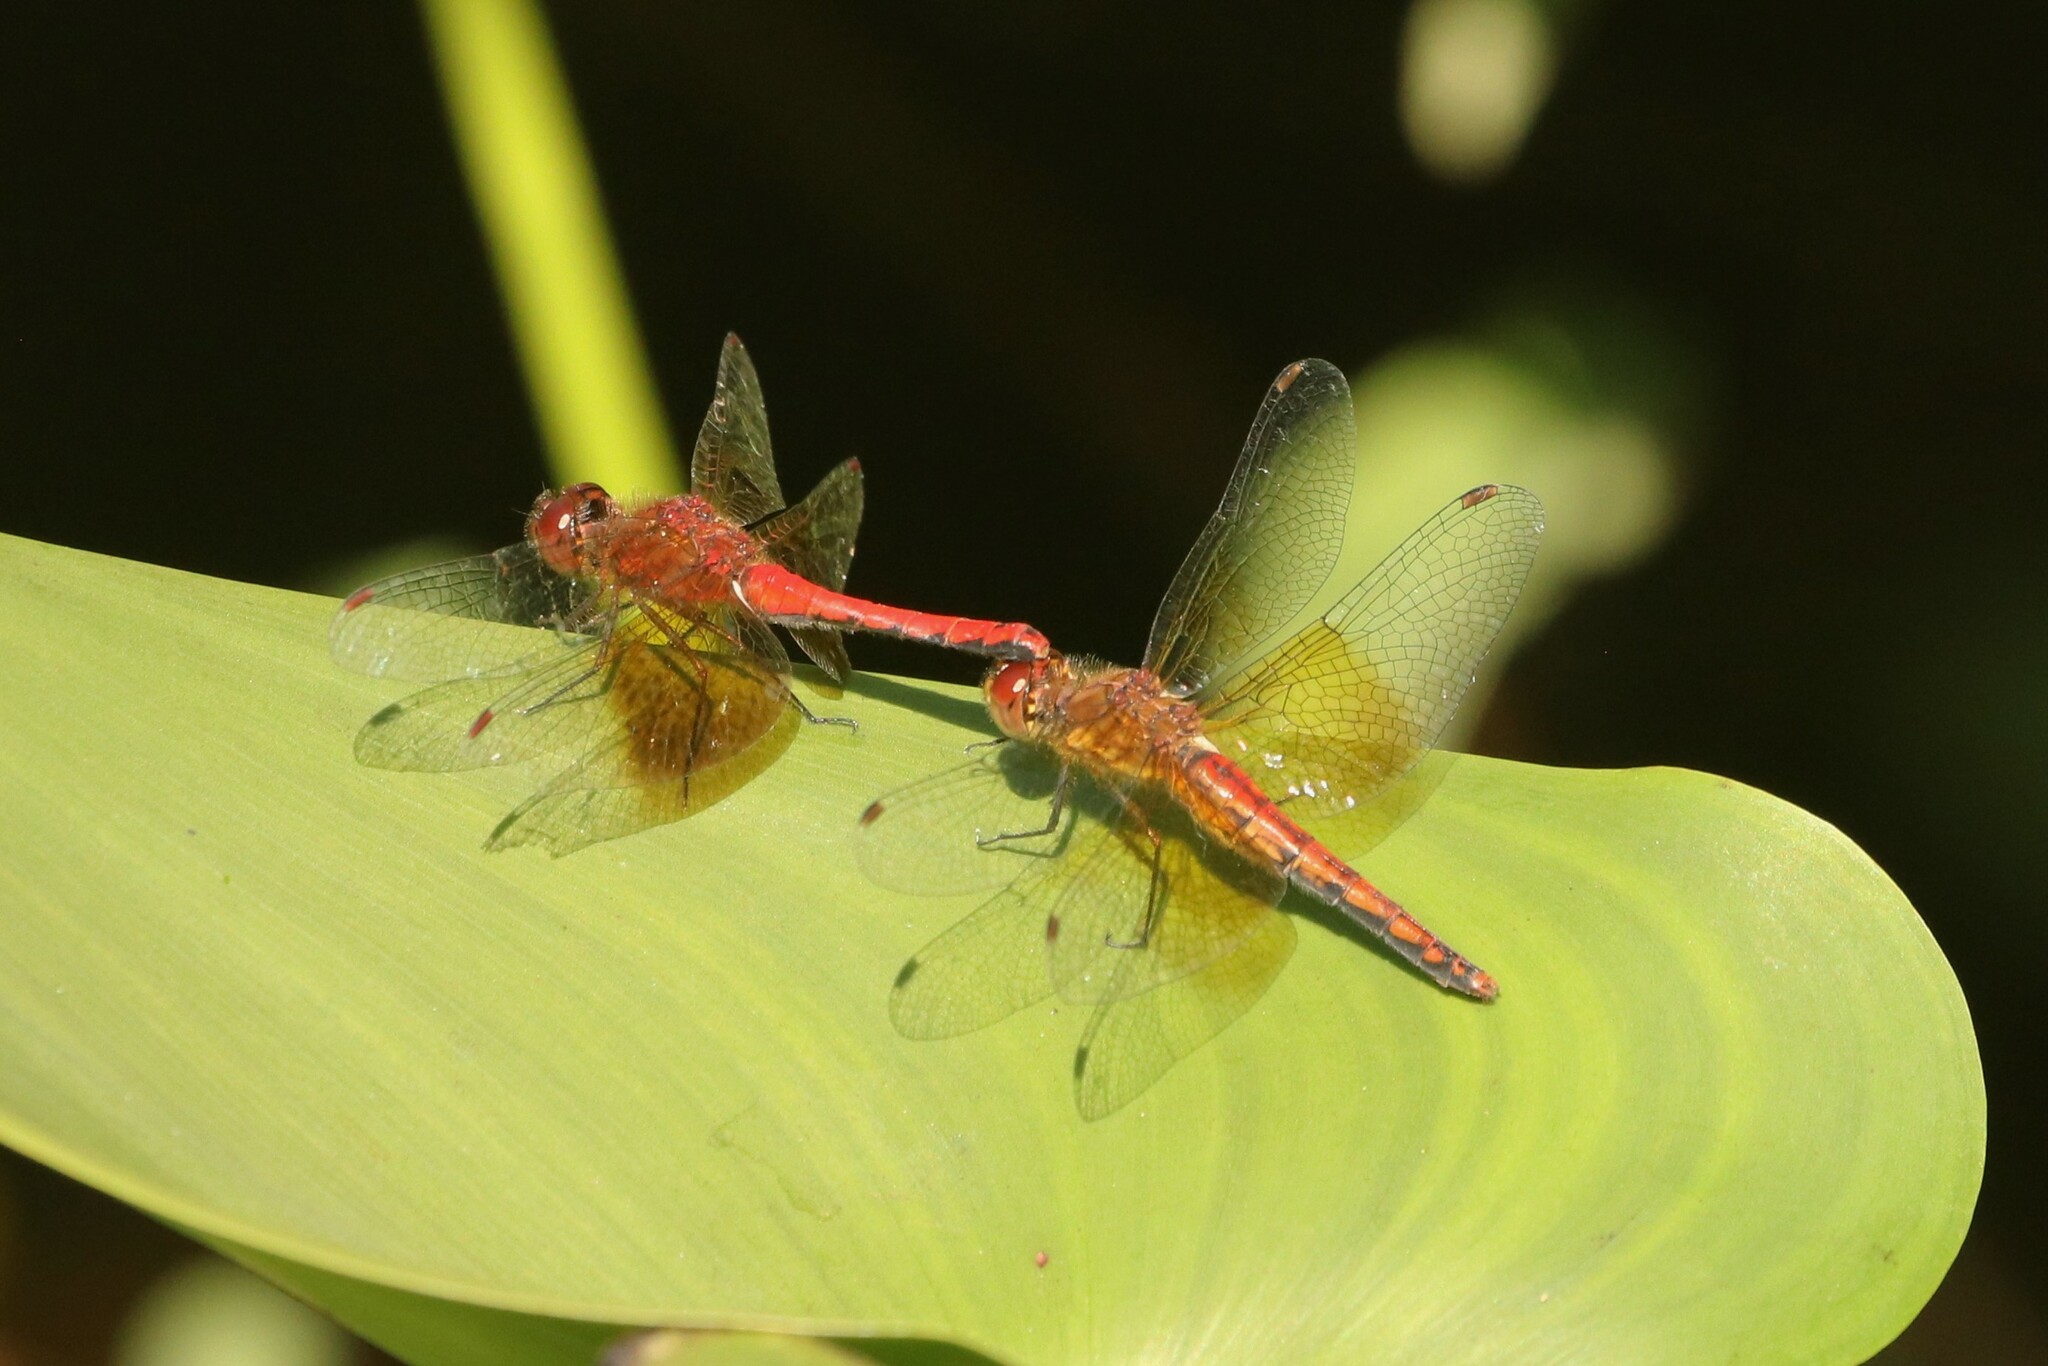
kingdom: Animalia
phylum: Arthropoda
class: Insecta
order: Odonata
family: Libellulidae
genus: Sympetrum
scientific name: Sympetrum semicinctum
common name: Band-winged meadowhawk
